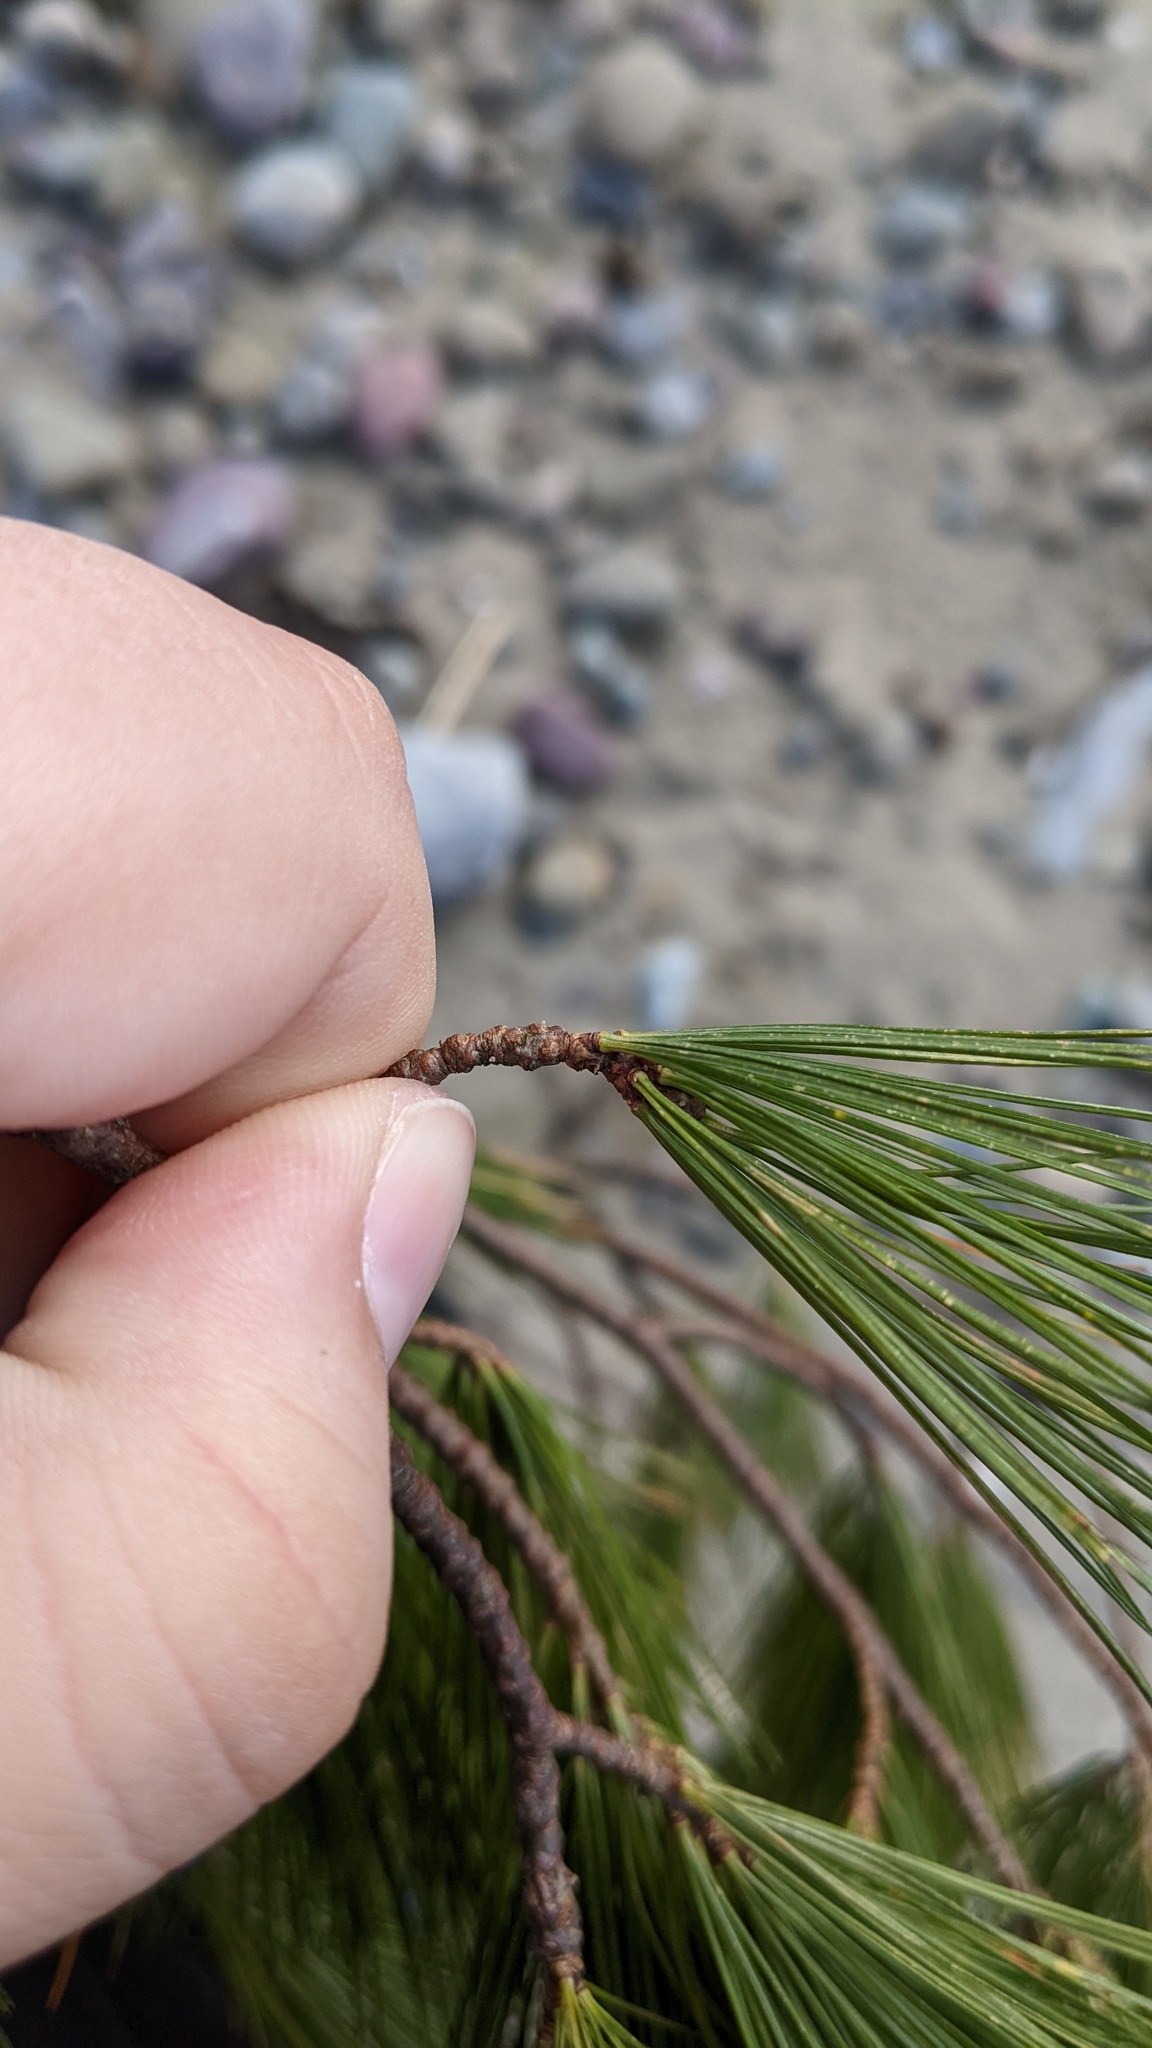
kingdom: Plantae
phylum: Tracheophyta
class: Pinopsida
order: Pinales
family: Pinaceae
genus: Pinus
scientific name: Pinus strobus
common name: Weymouth pine
